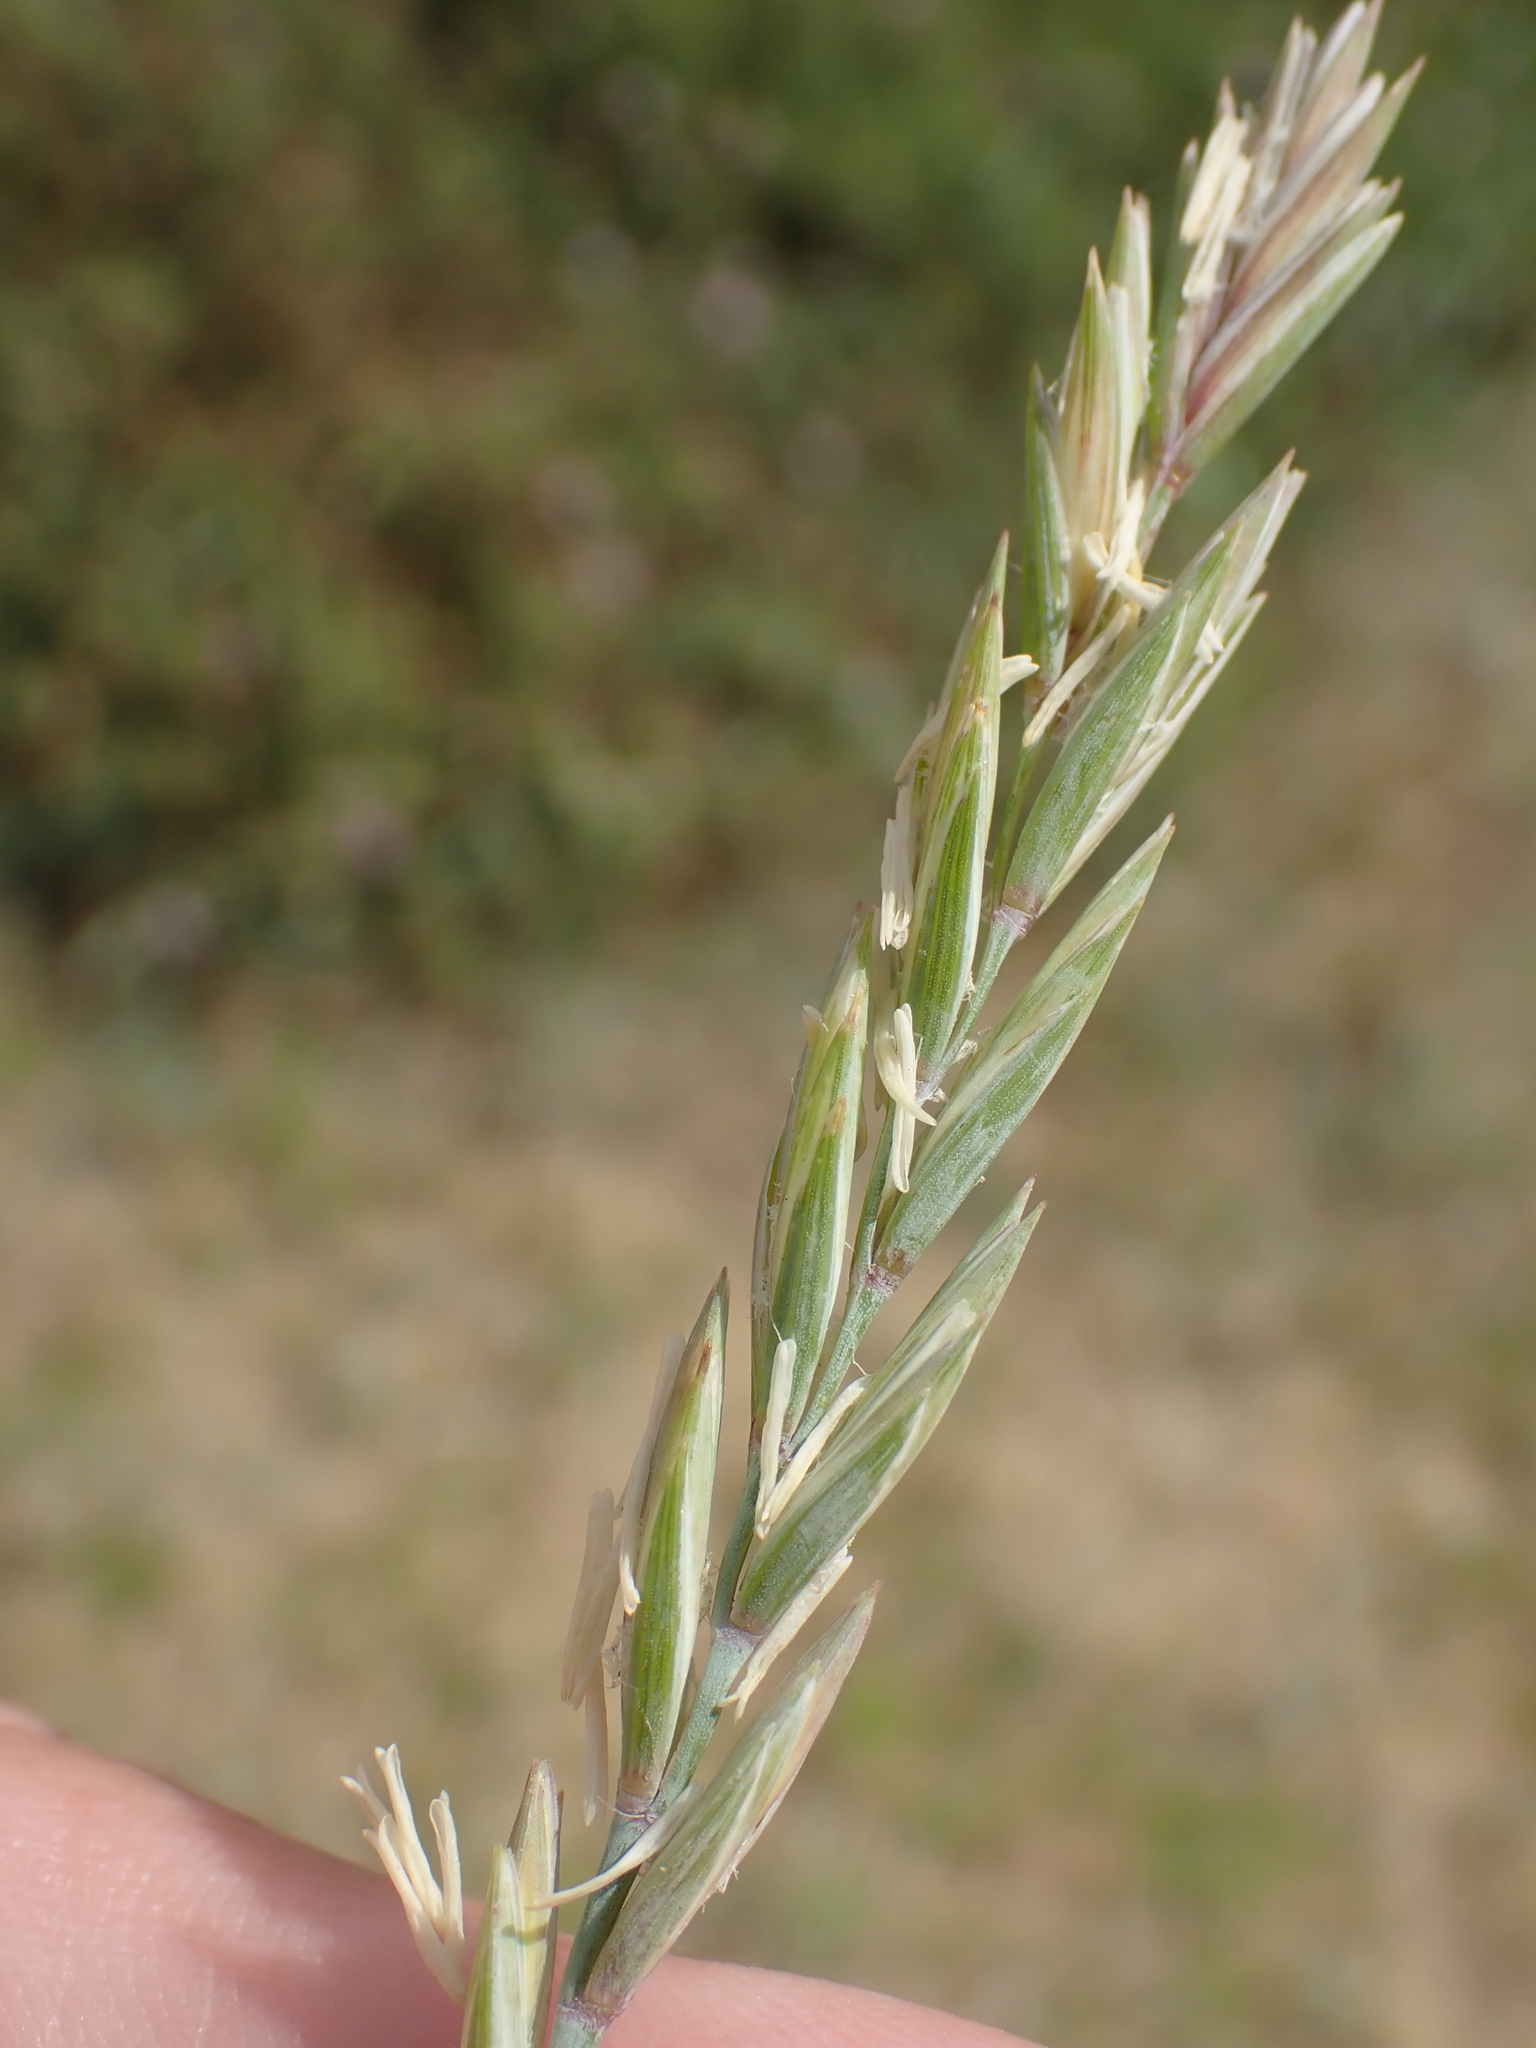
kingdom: Plantae
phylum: Tracheophyta
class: Liliopsida
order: Poales
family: Poaceae
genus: Elymus
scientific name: Elymus athericus
